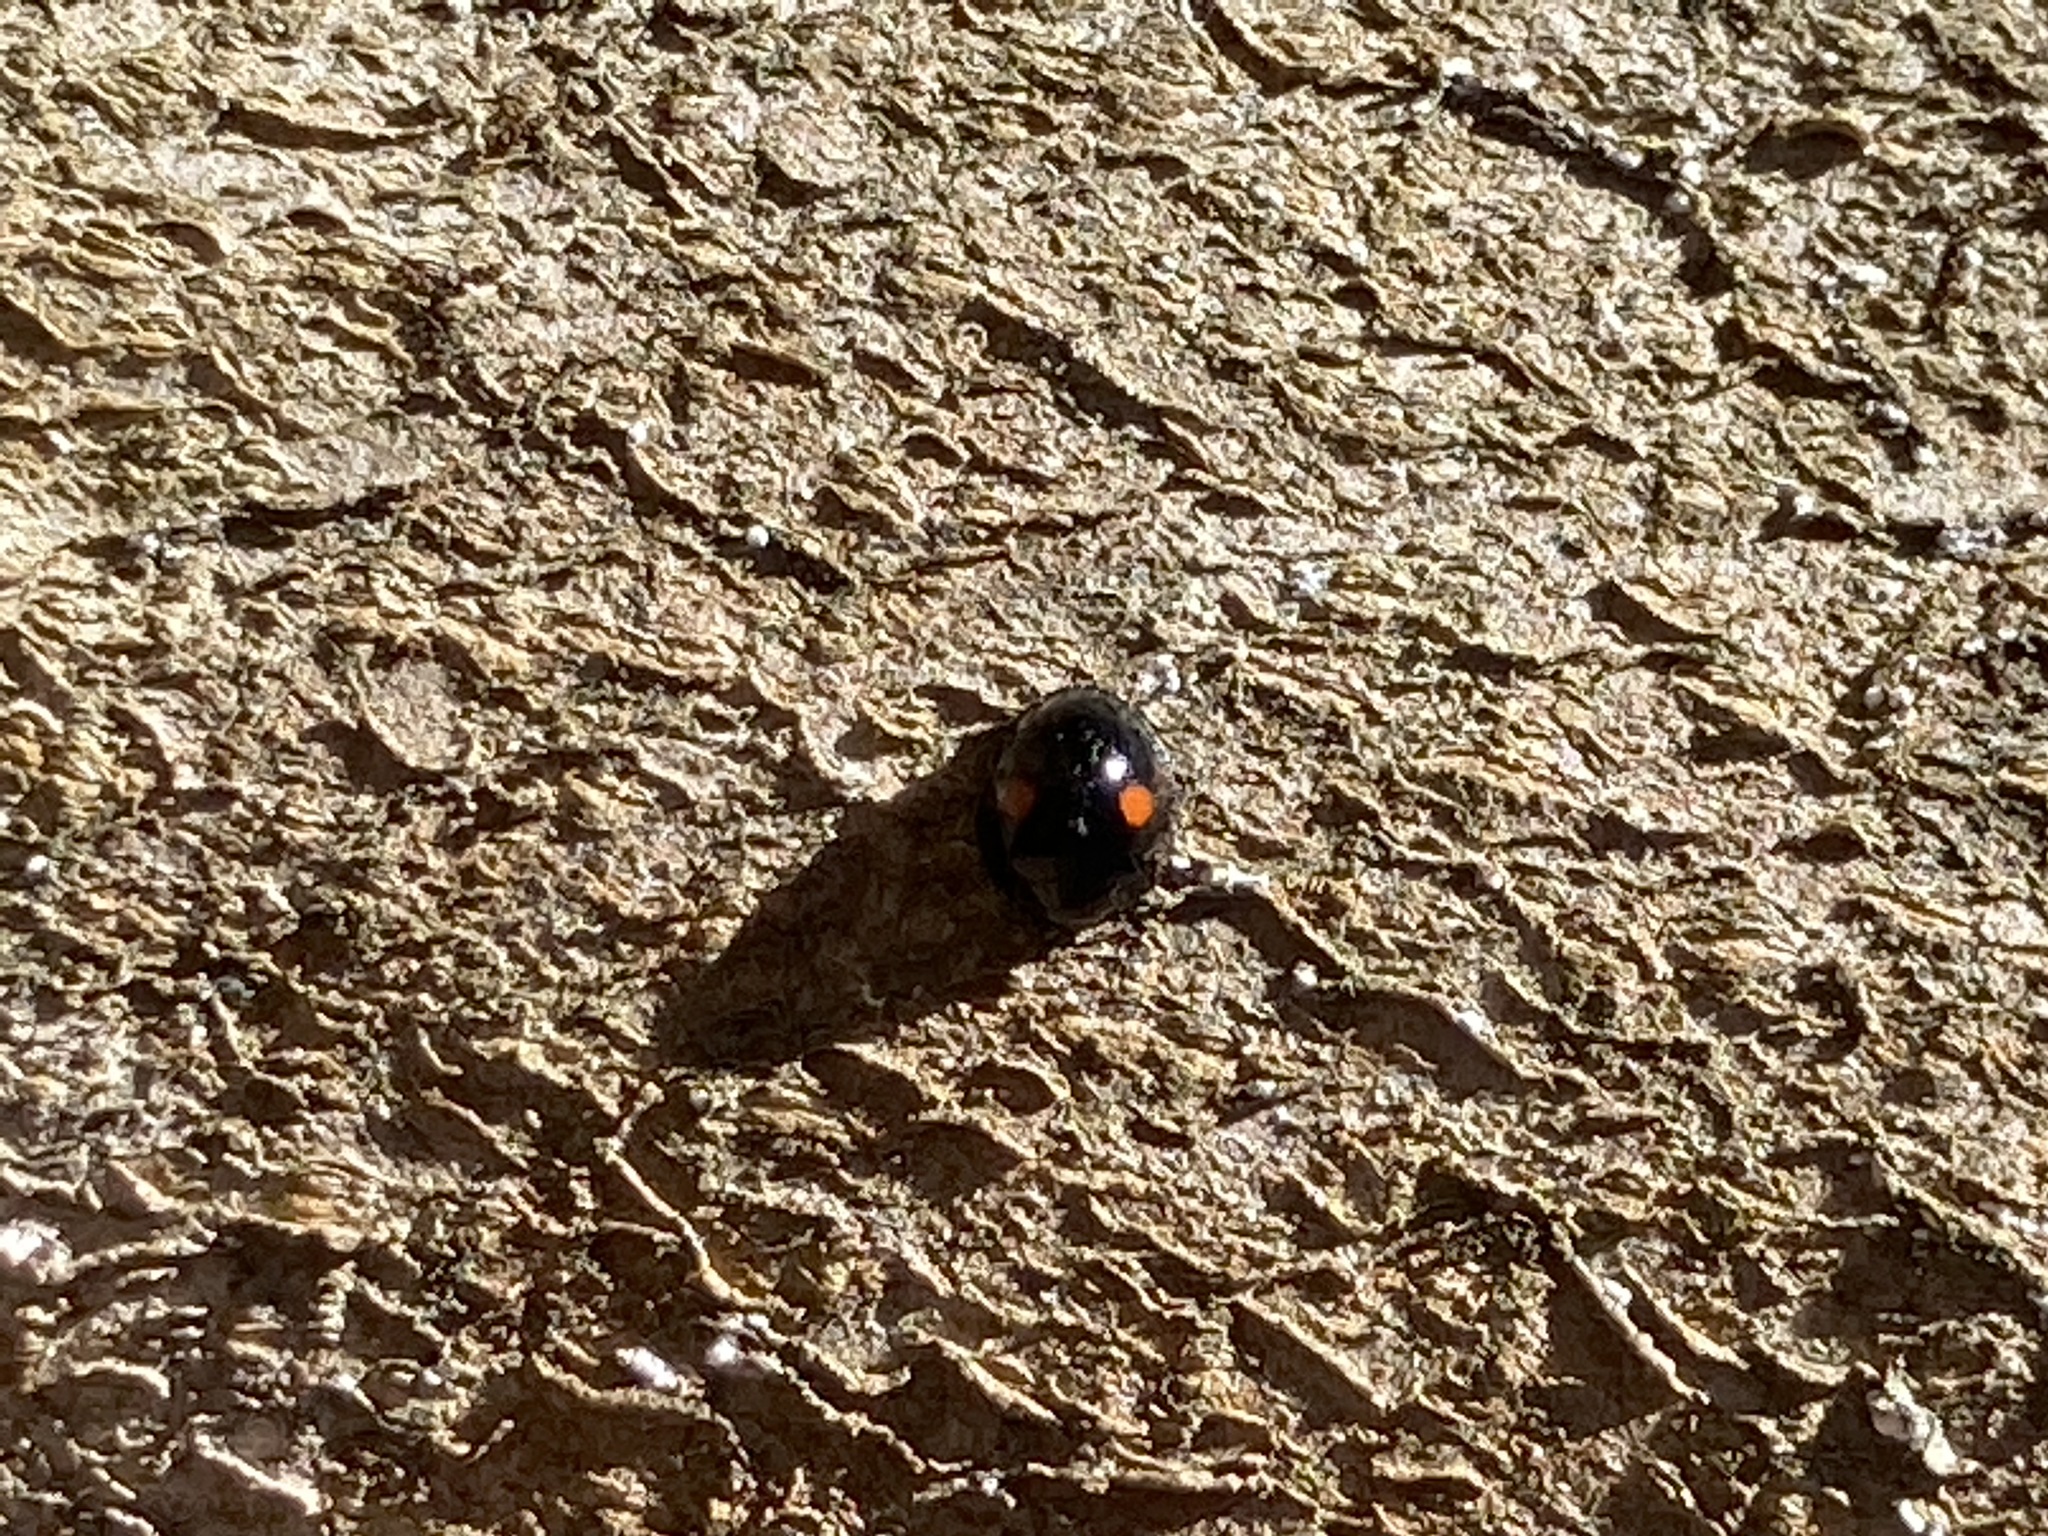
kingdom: Animalia
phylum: Arthropoda
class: Insecta
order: Coleoptera
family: Coccinellidae
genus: Chilocorus
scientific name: Chilocorus stigma
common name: Twicestabbed lady beetle
